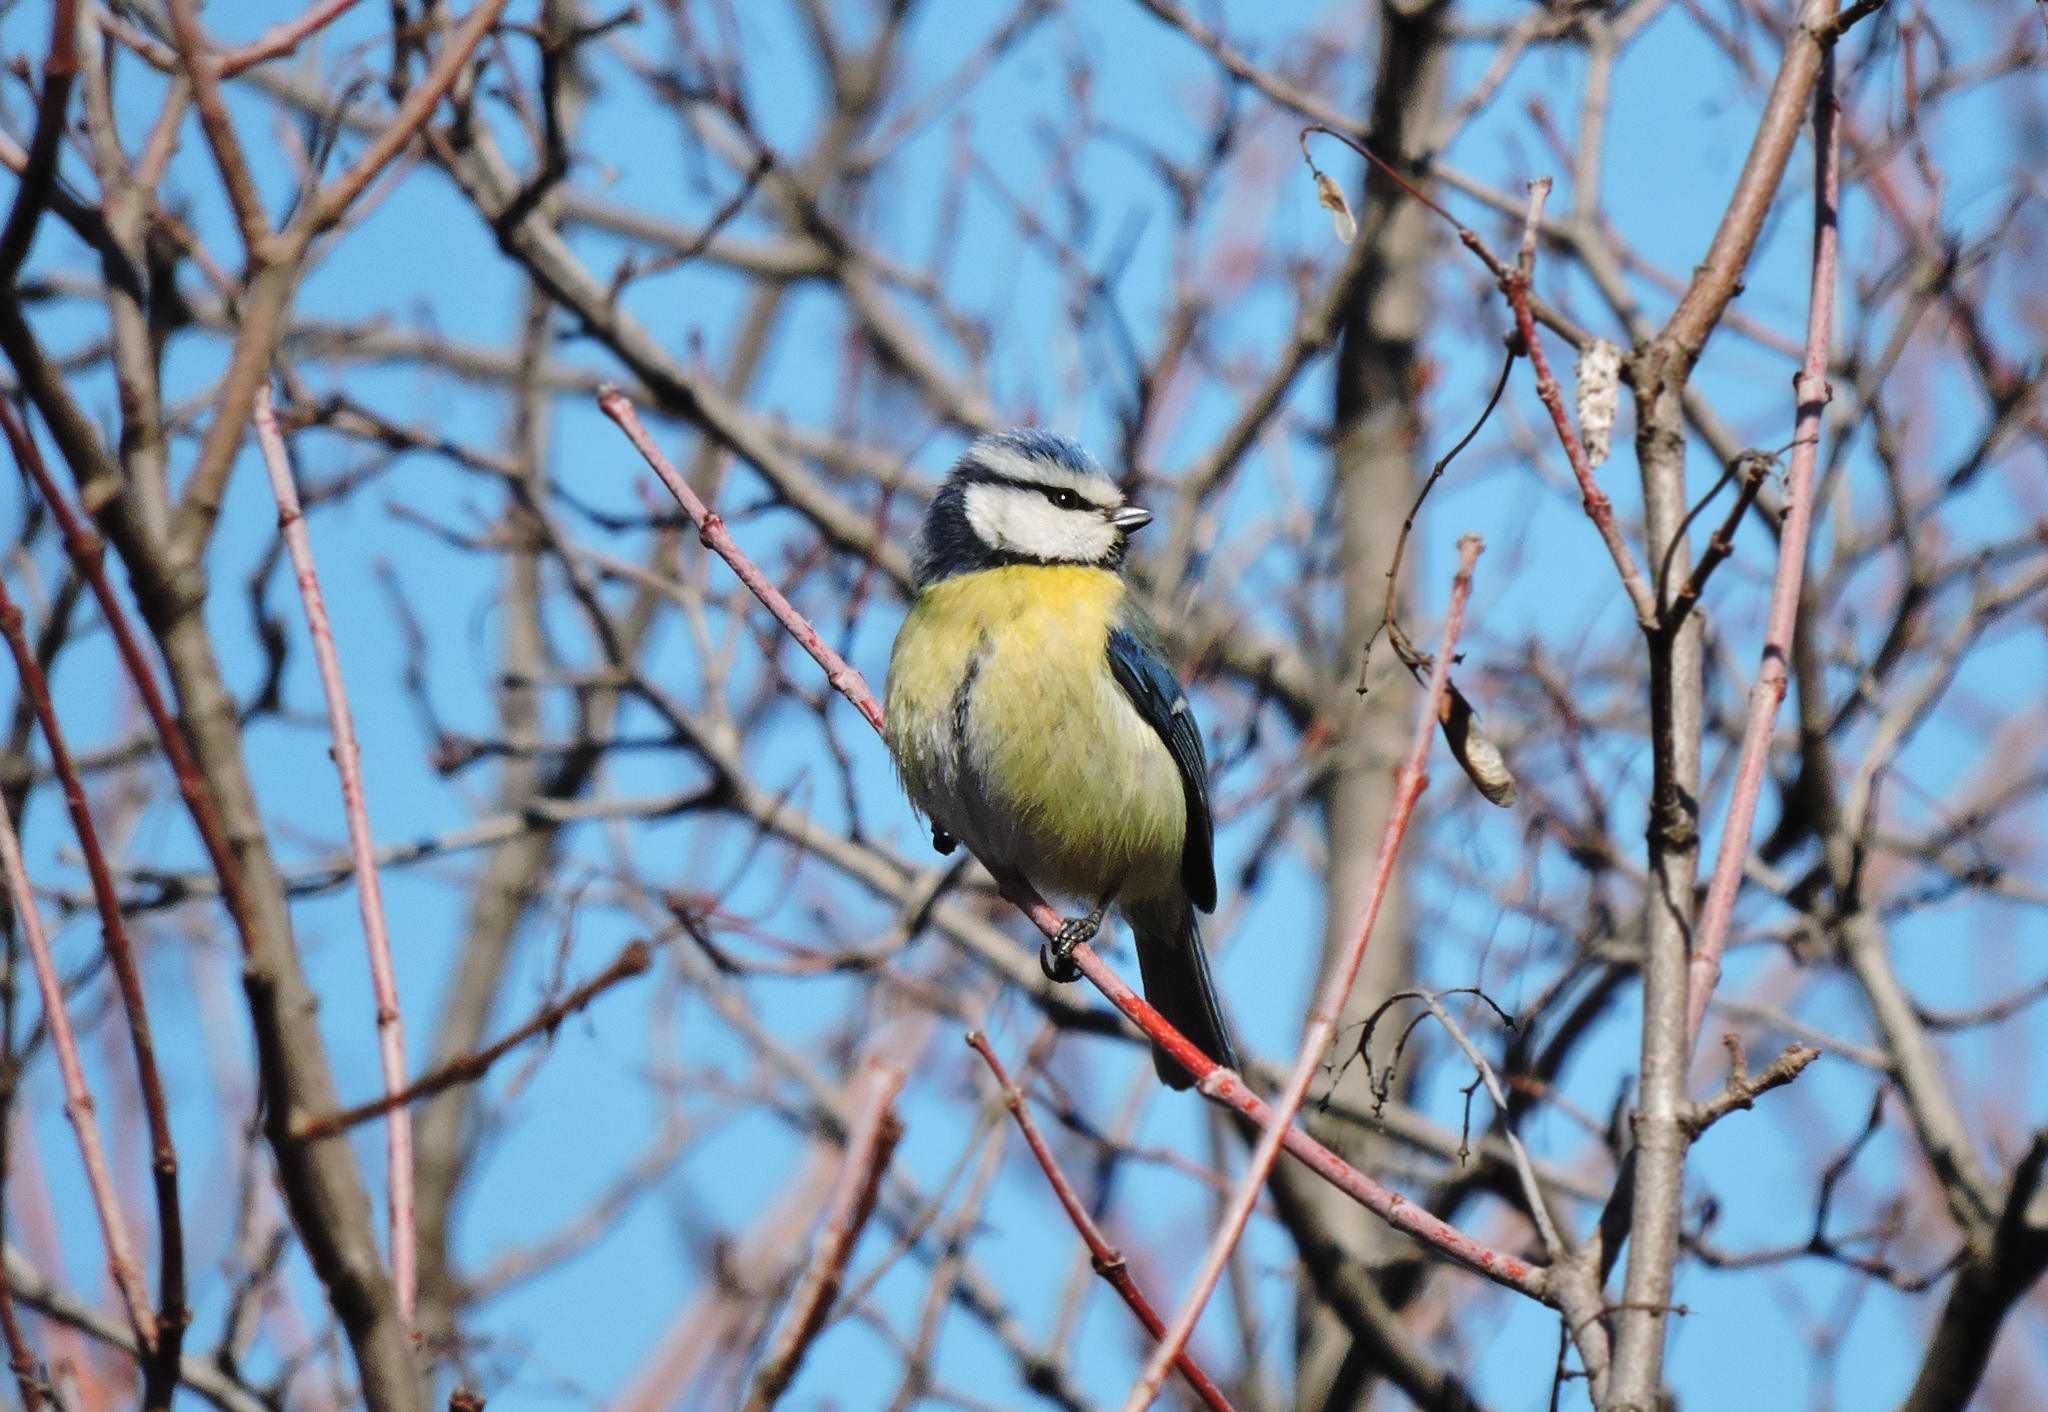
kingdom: Animalia
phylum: Chordata
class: Aves
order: Passeriformes
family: Paridae
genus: Cyanistes
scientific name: Cyanistes caeruleus
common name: Eurasian blue tit
